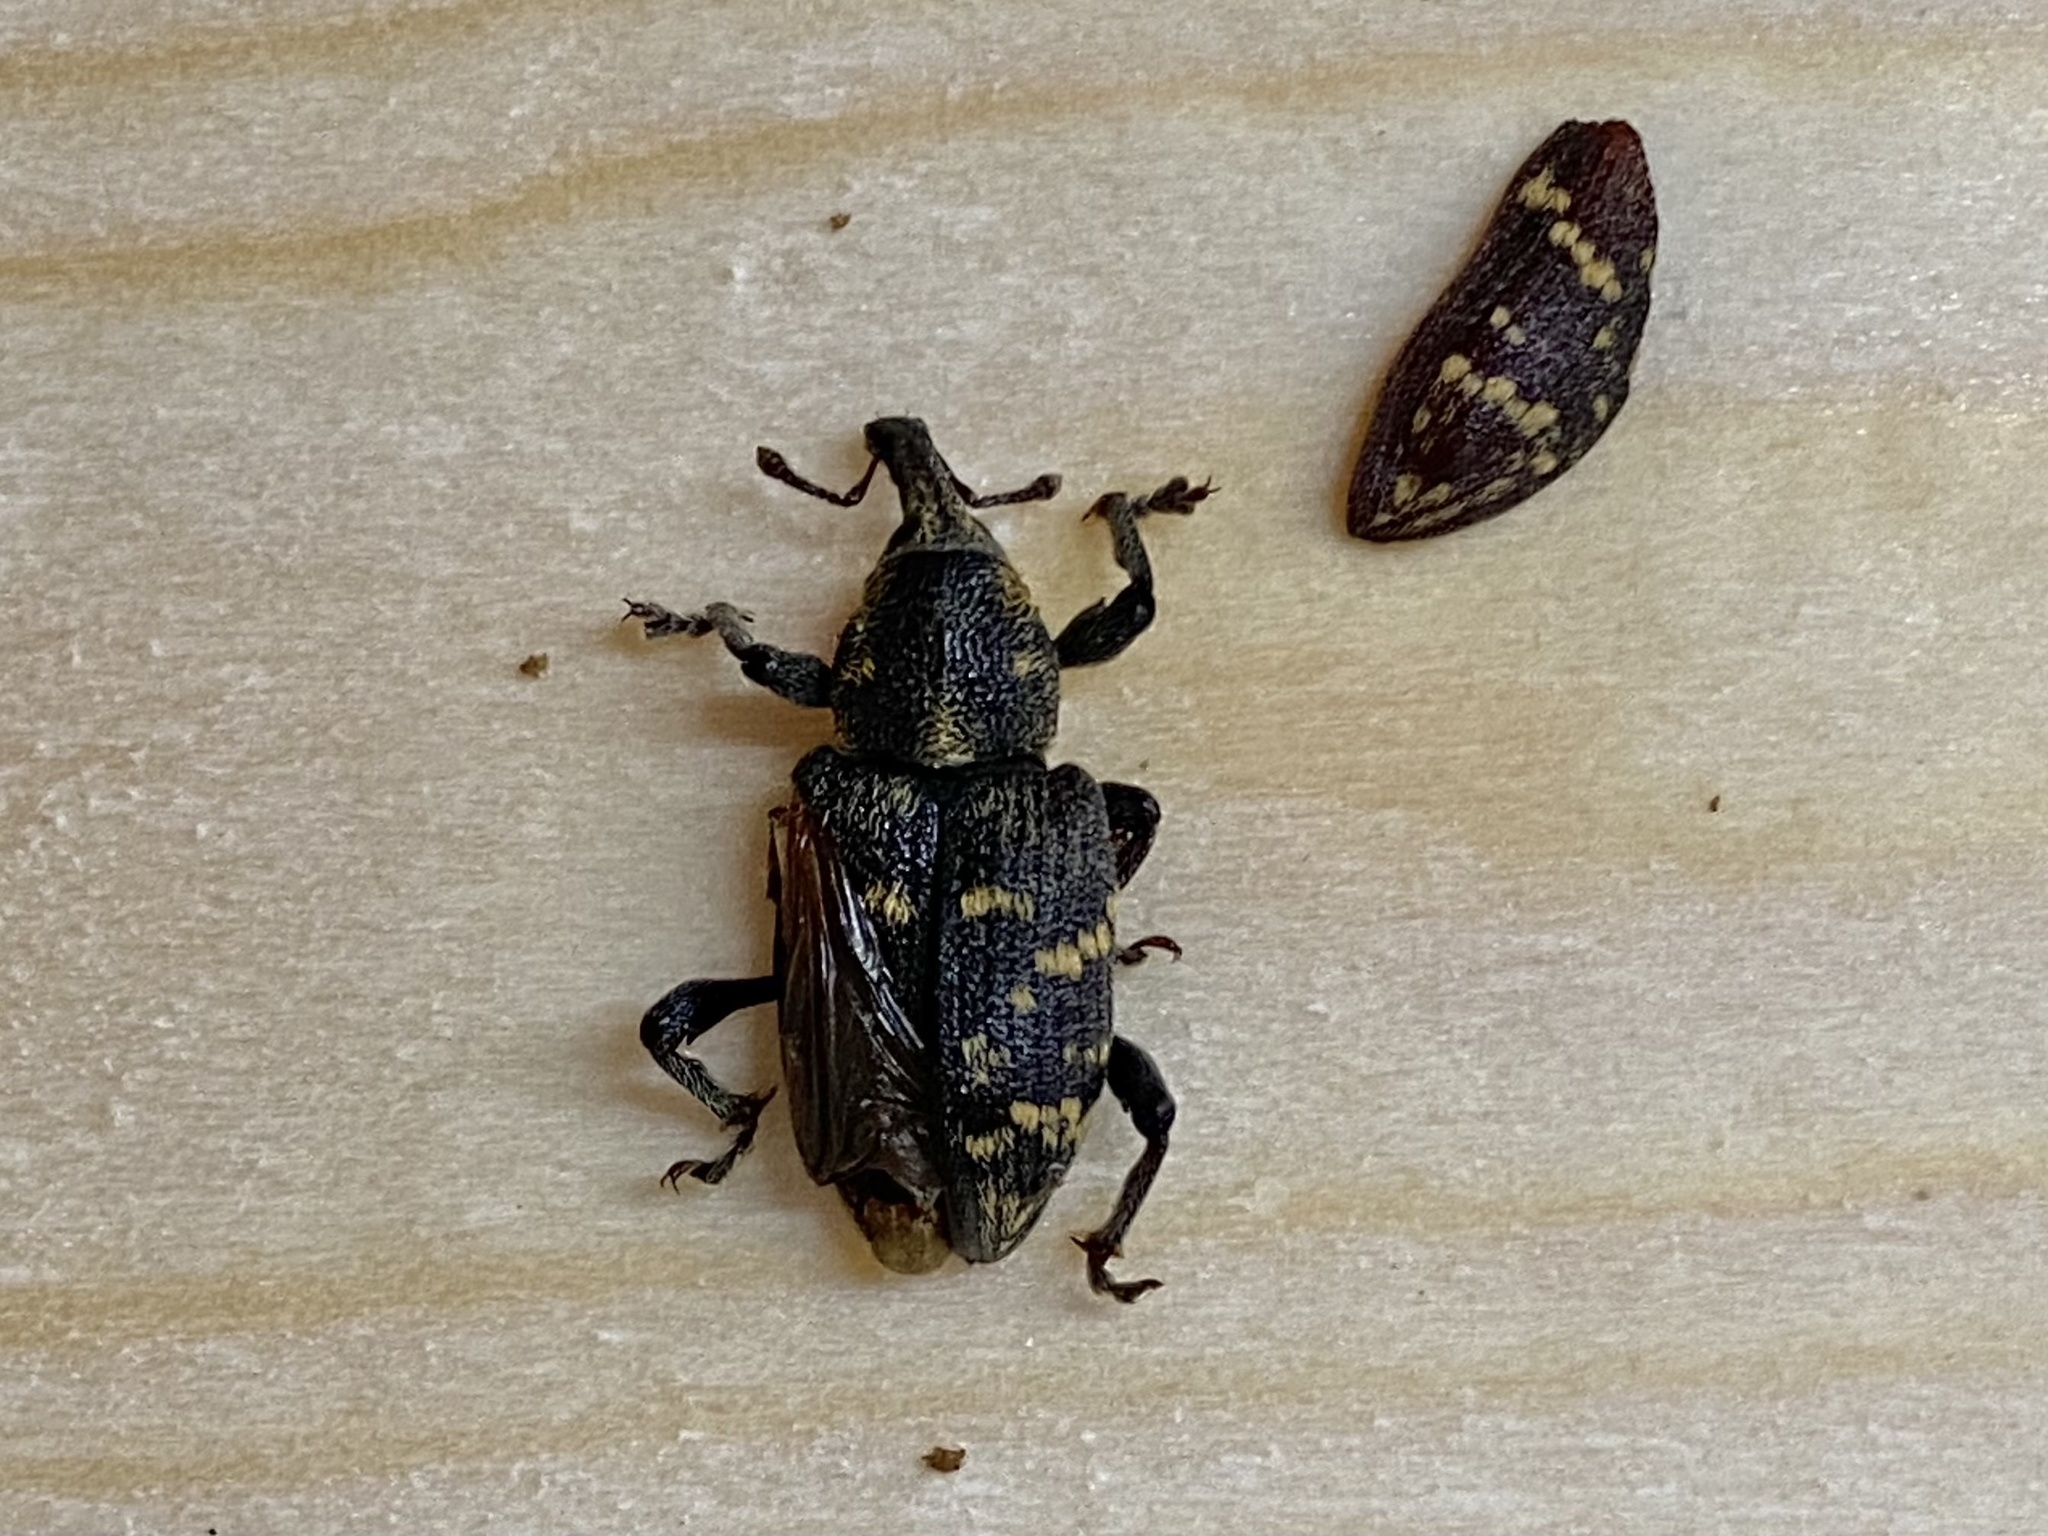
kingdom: Animalia
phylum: Arthropoda
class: Insecta
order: Coleoptera
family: Curculionidae
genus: Hylobius
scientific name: Hylobius pales
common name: Pales weevil
